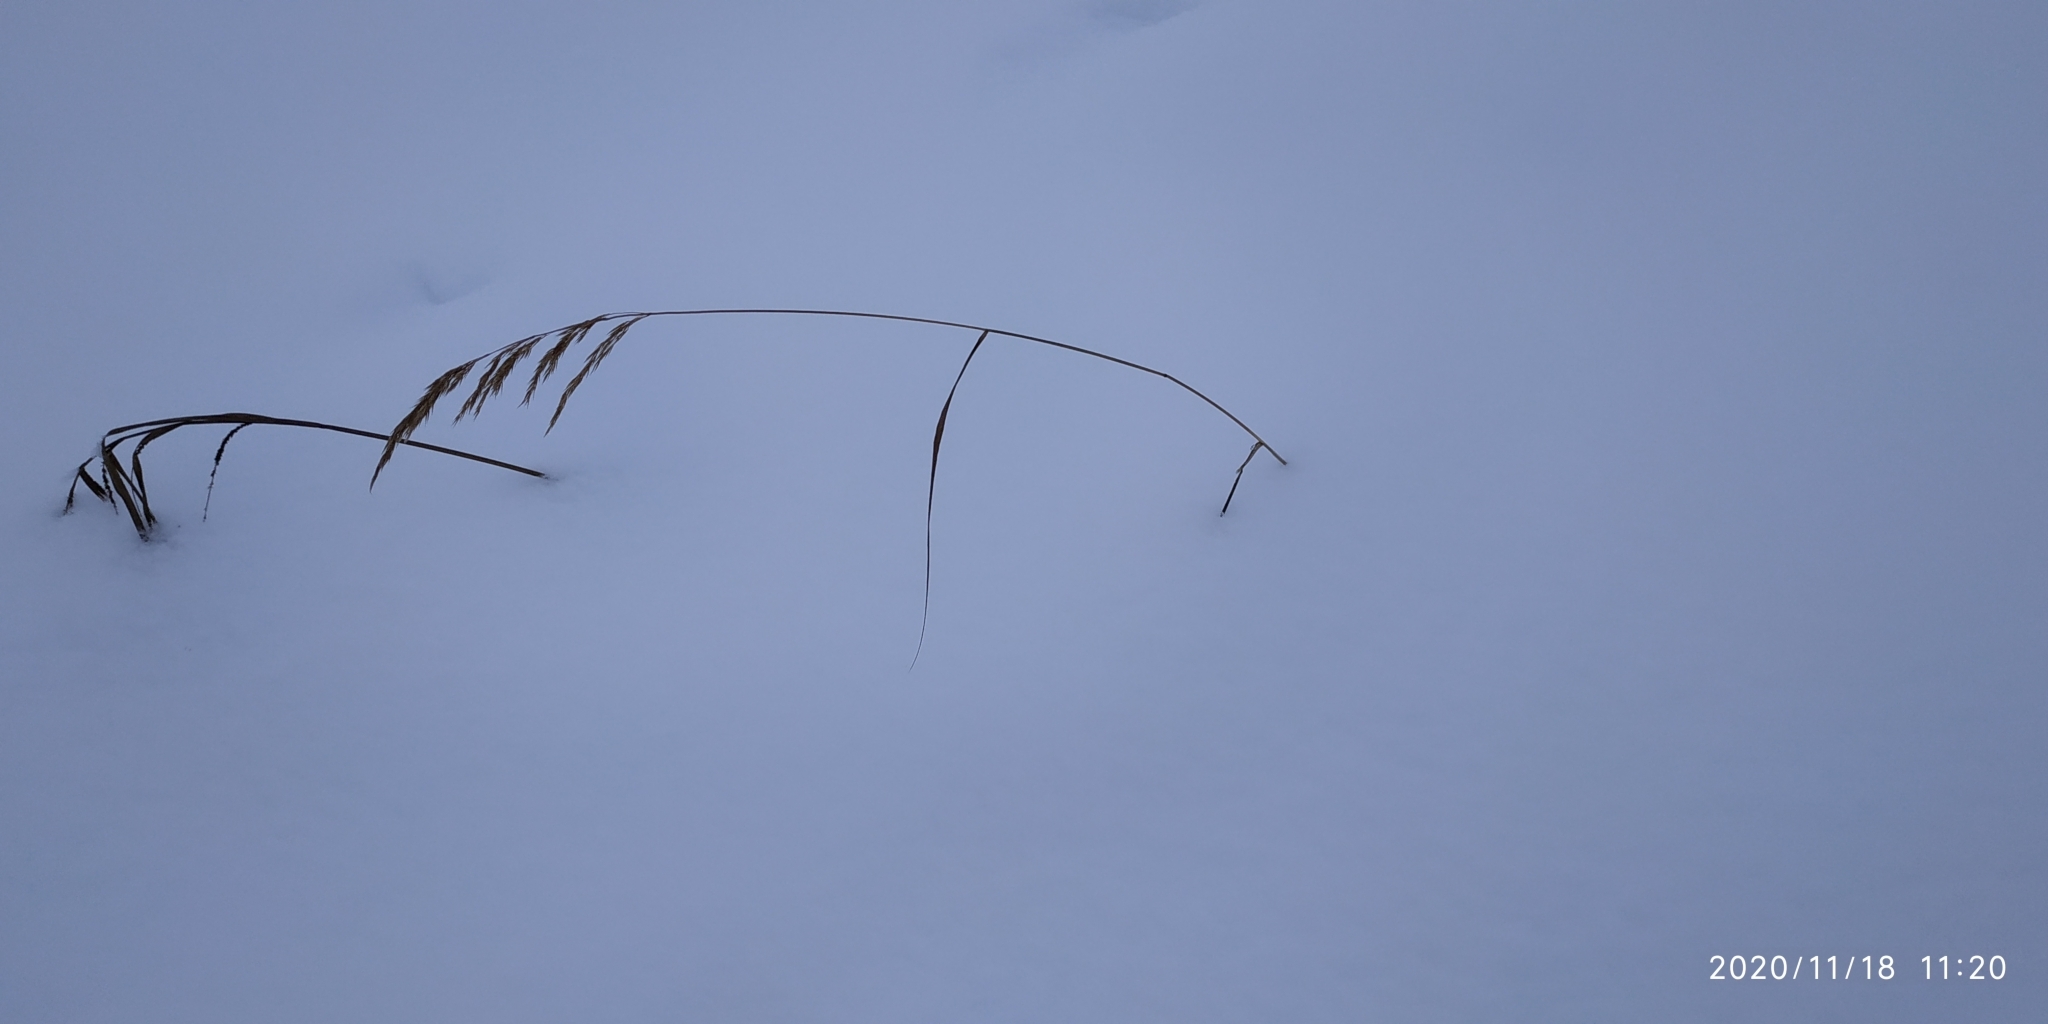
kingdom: Plantae
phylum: Tracheophyta
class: Liliopsida
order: Poales
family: Poaceae
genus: Calamagrostis
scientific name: Calamagrostis purpurea
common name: Scandinavian small-reed
